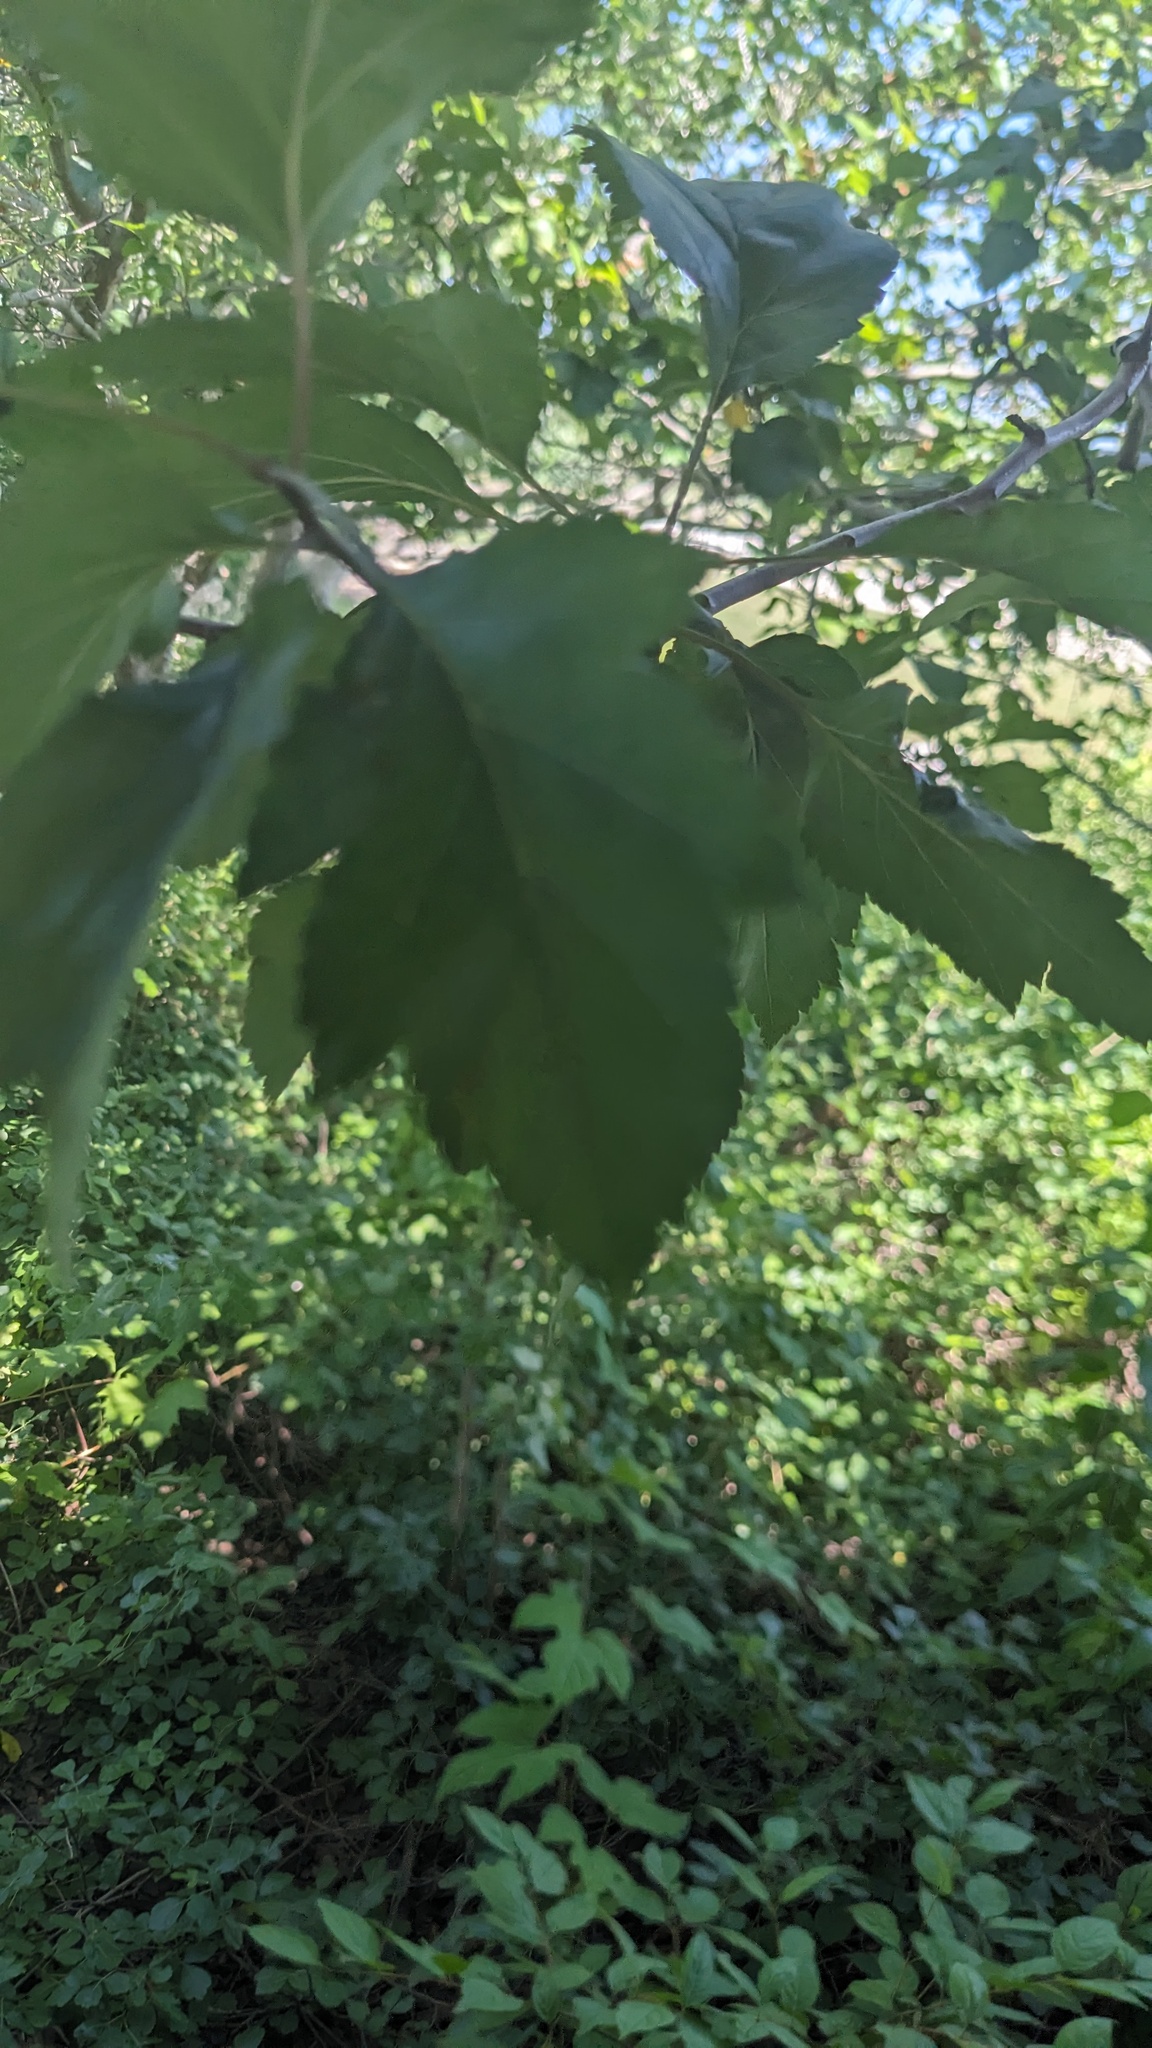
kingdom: Plantae
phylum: Tracheophyta
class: Magnoliopsida
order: Rosales
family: Rosaceae
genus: Crataegus
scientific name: Crataegus mollis
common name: Downy hawthorn
